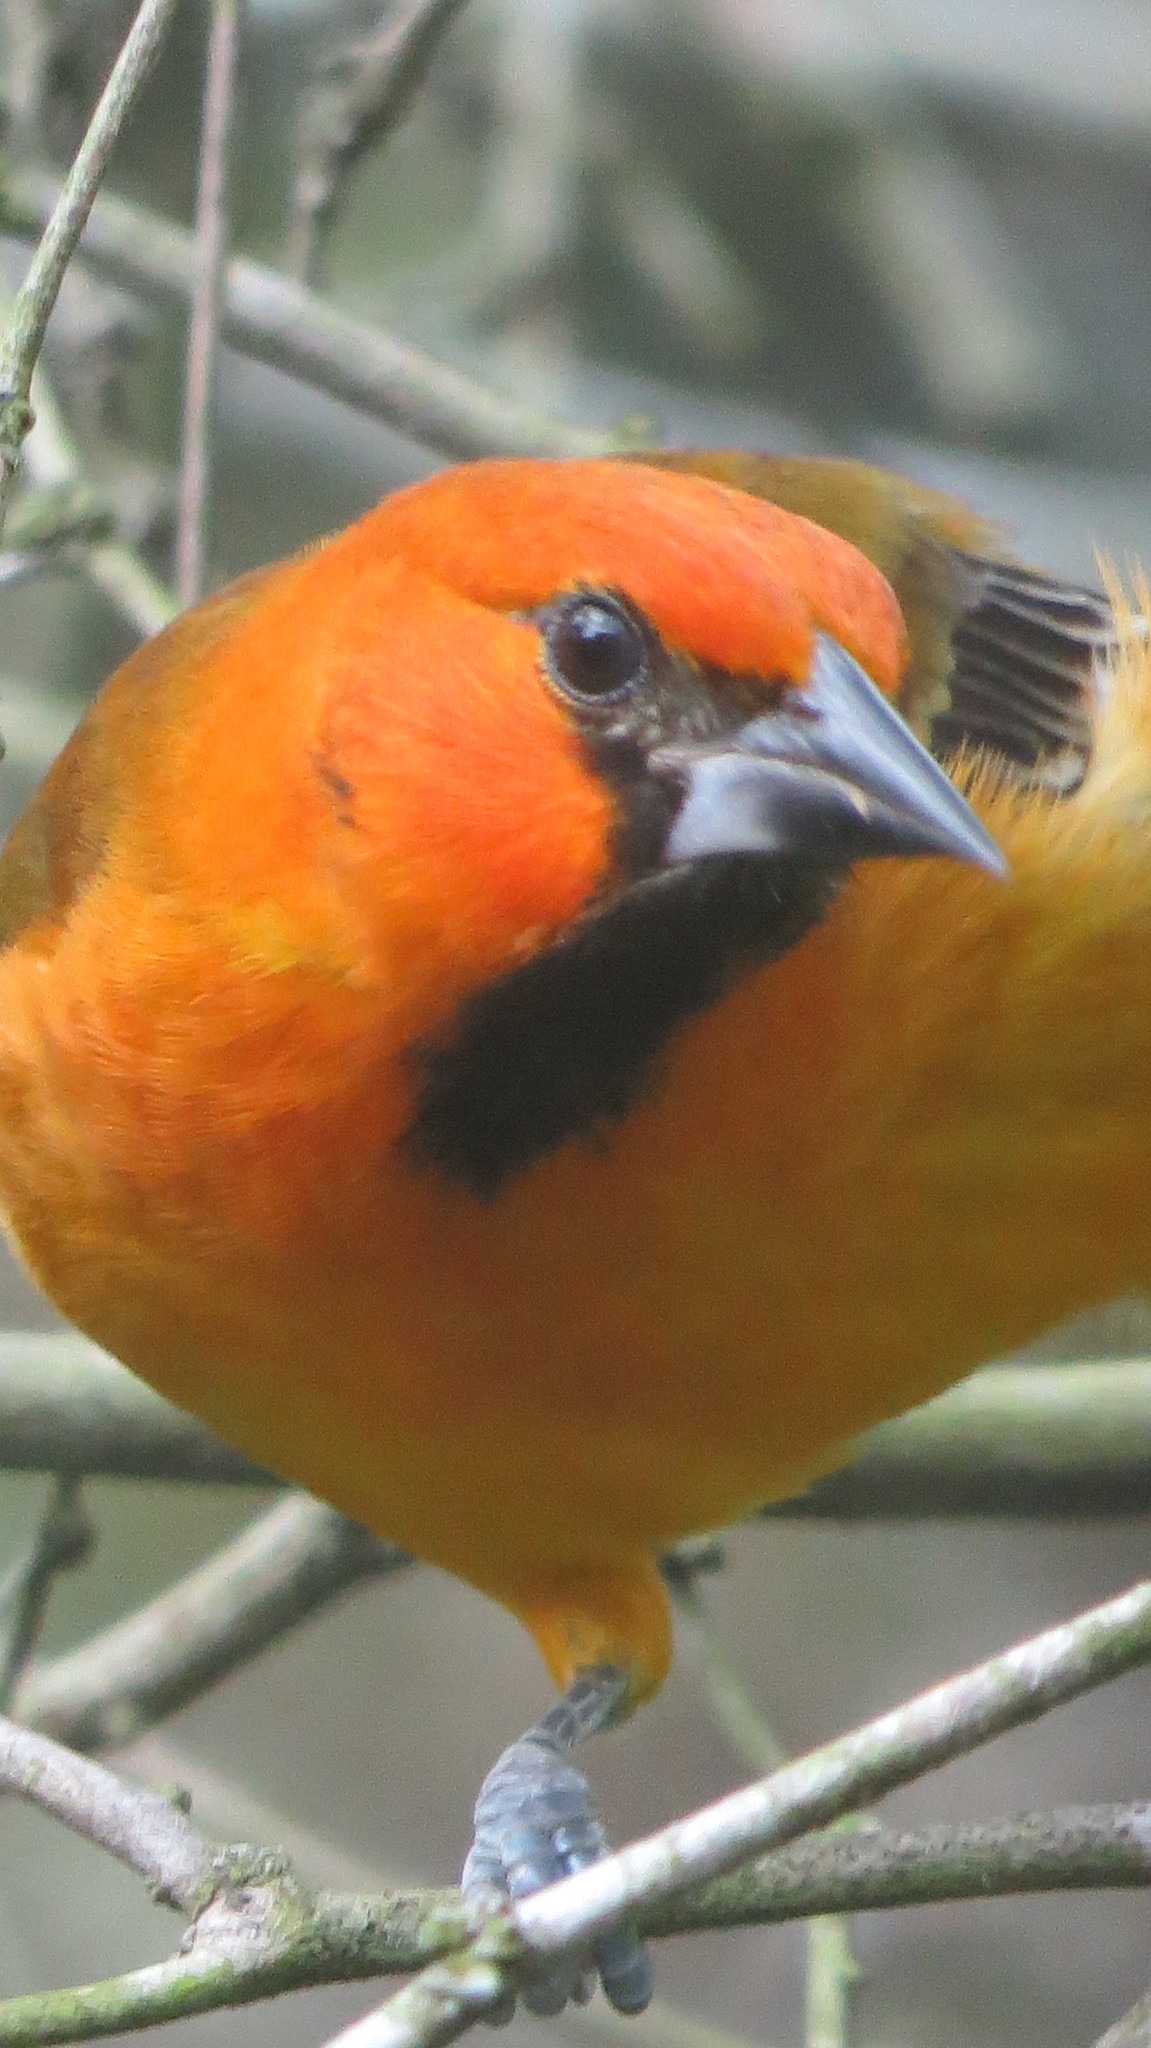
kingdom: Animalia
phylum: Chordata
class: Aves
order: Passeriformes
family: Icteridae
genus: Icterus
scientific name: Icterus gularis
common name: Altamira oriole
